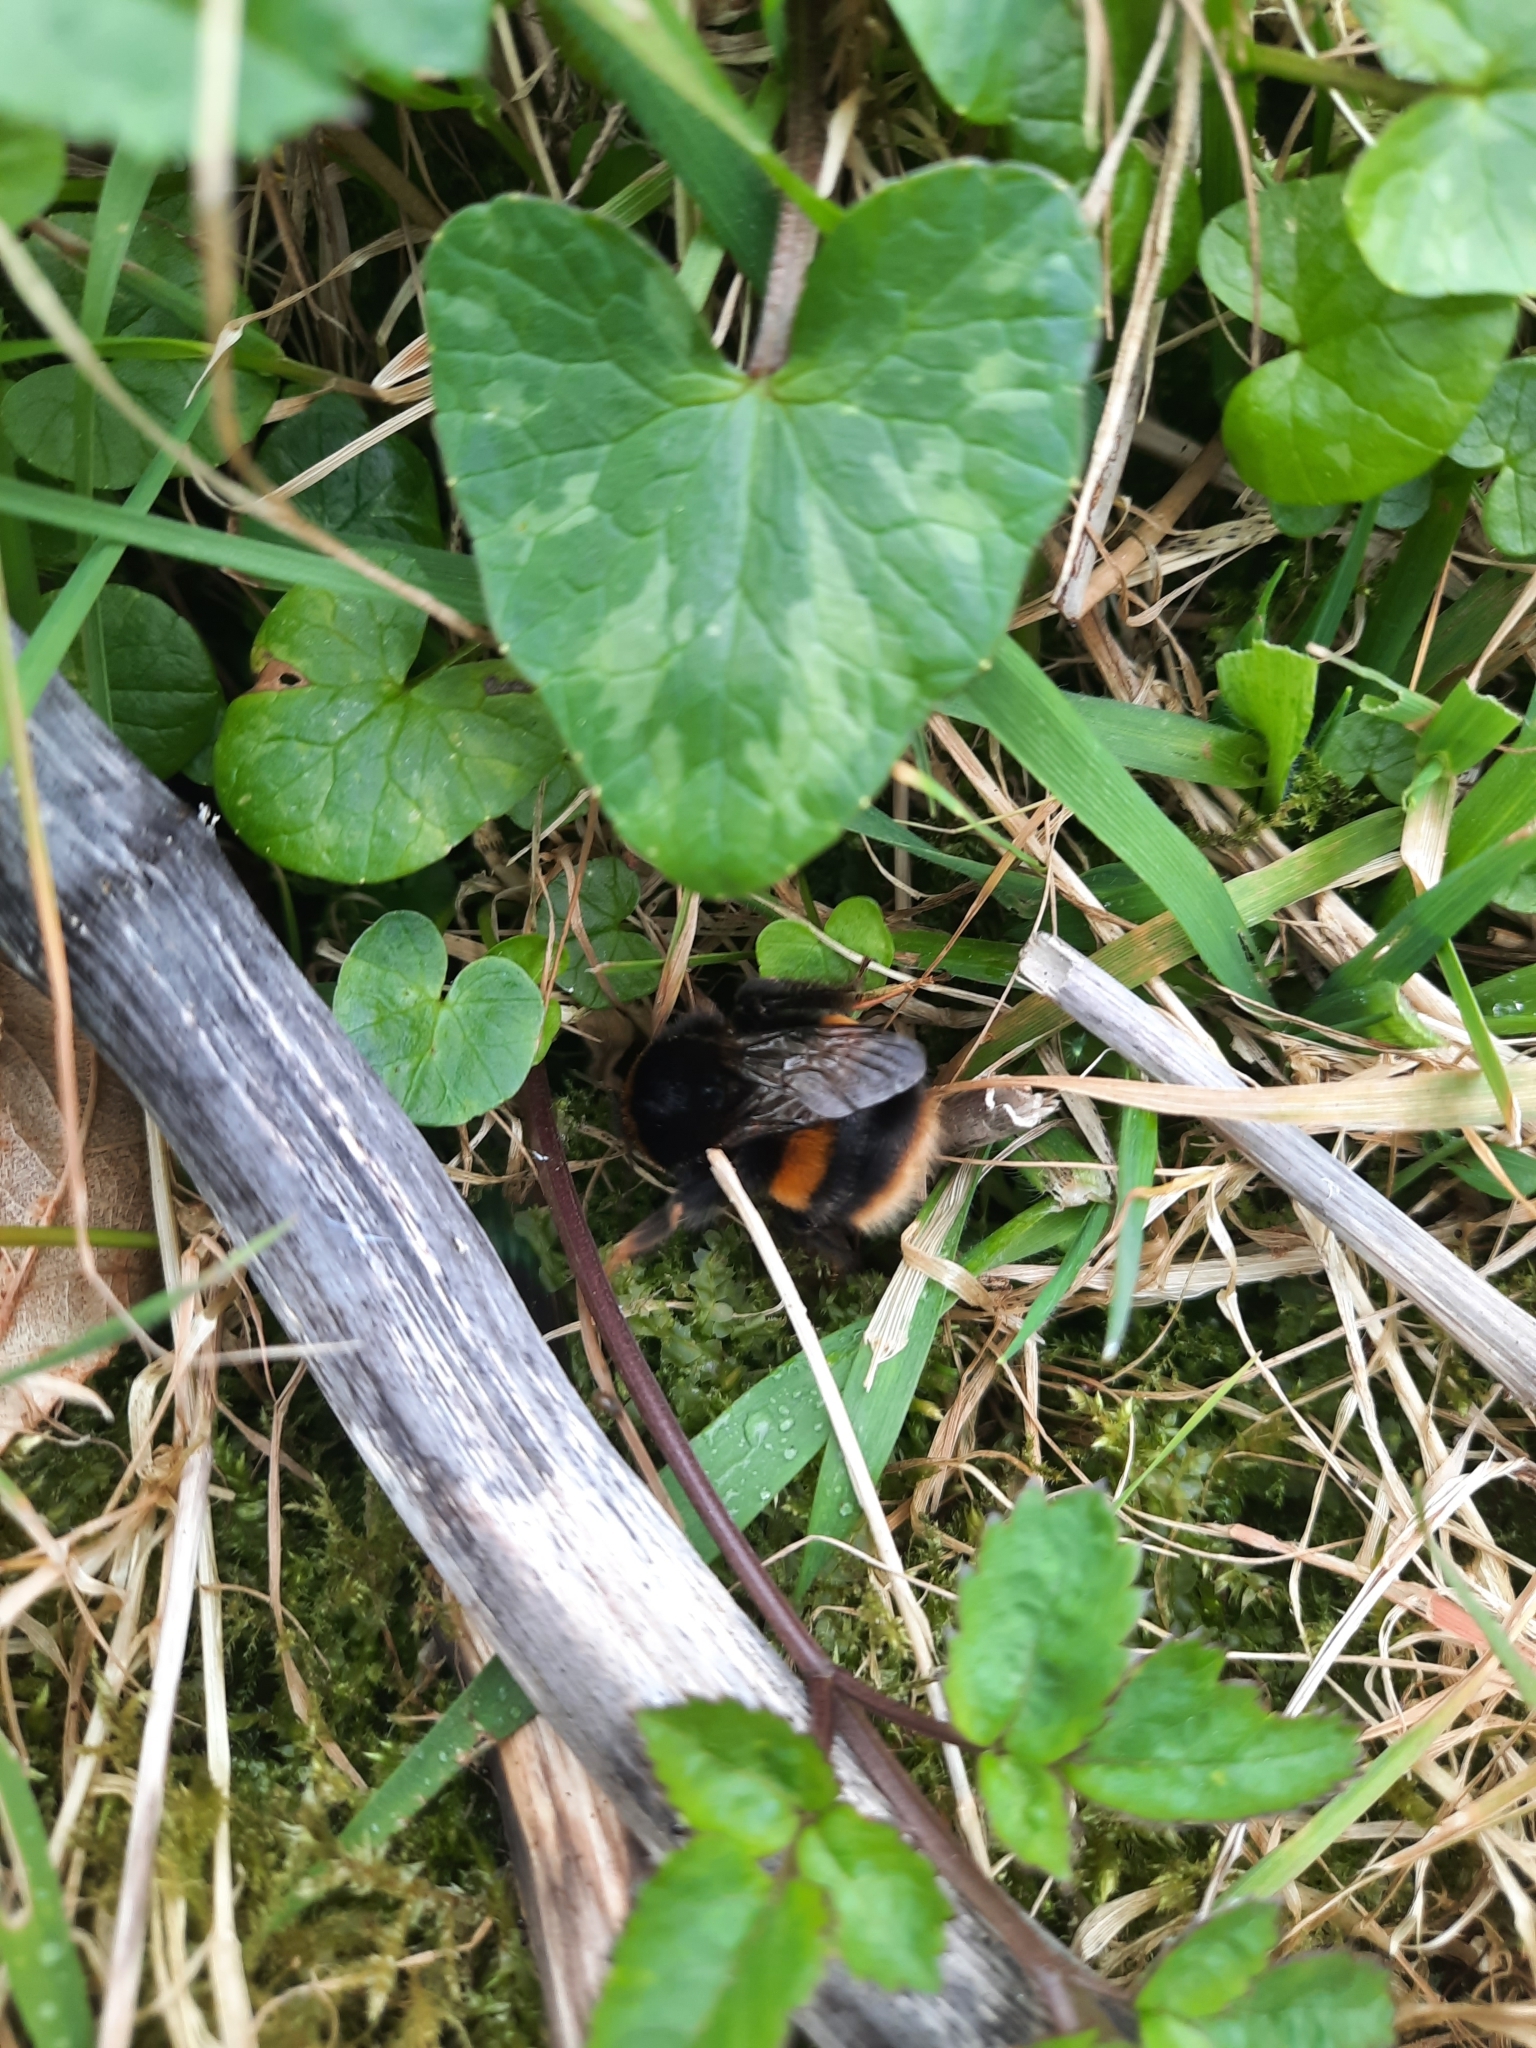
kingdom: Animalia
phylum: Arthropoda
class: Insecta
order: Hymenoptera
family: Apidae
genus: Bombus
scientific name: Bombus terrestris
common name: Buff-tailed bumblebee
